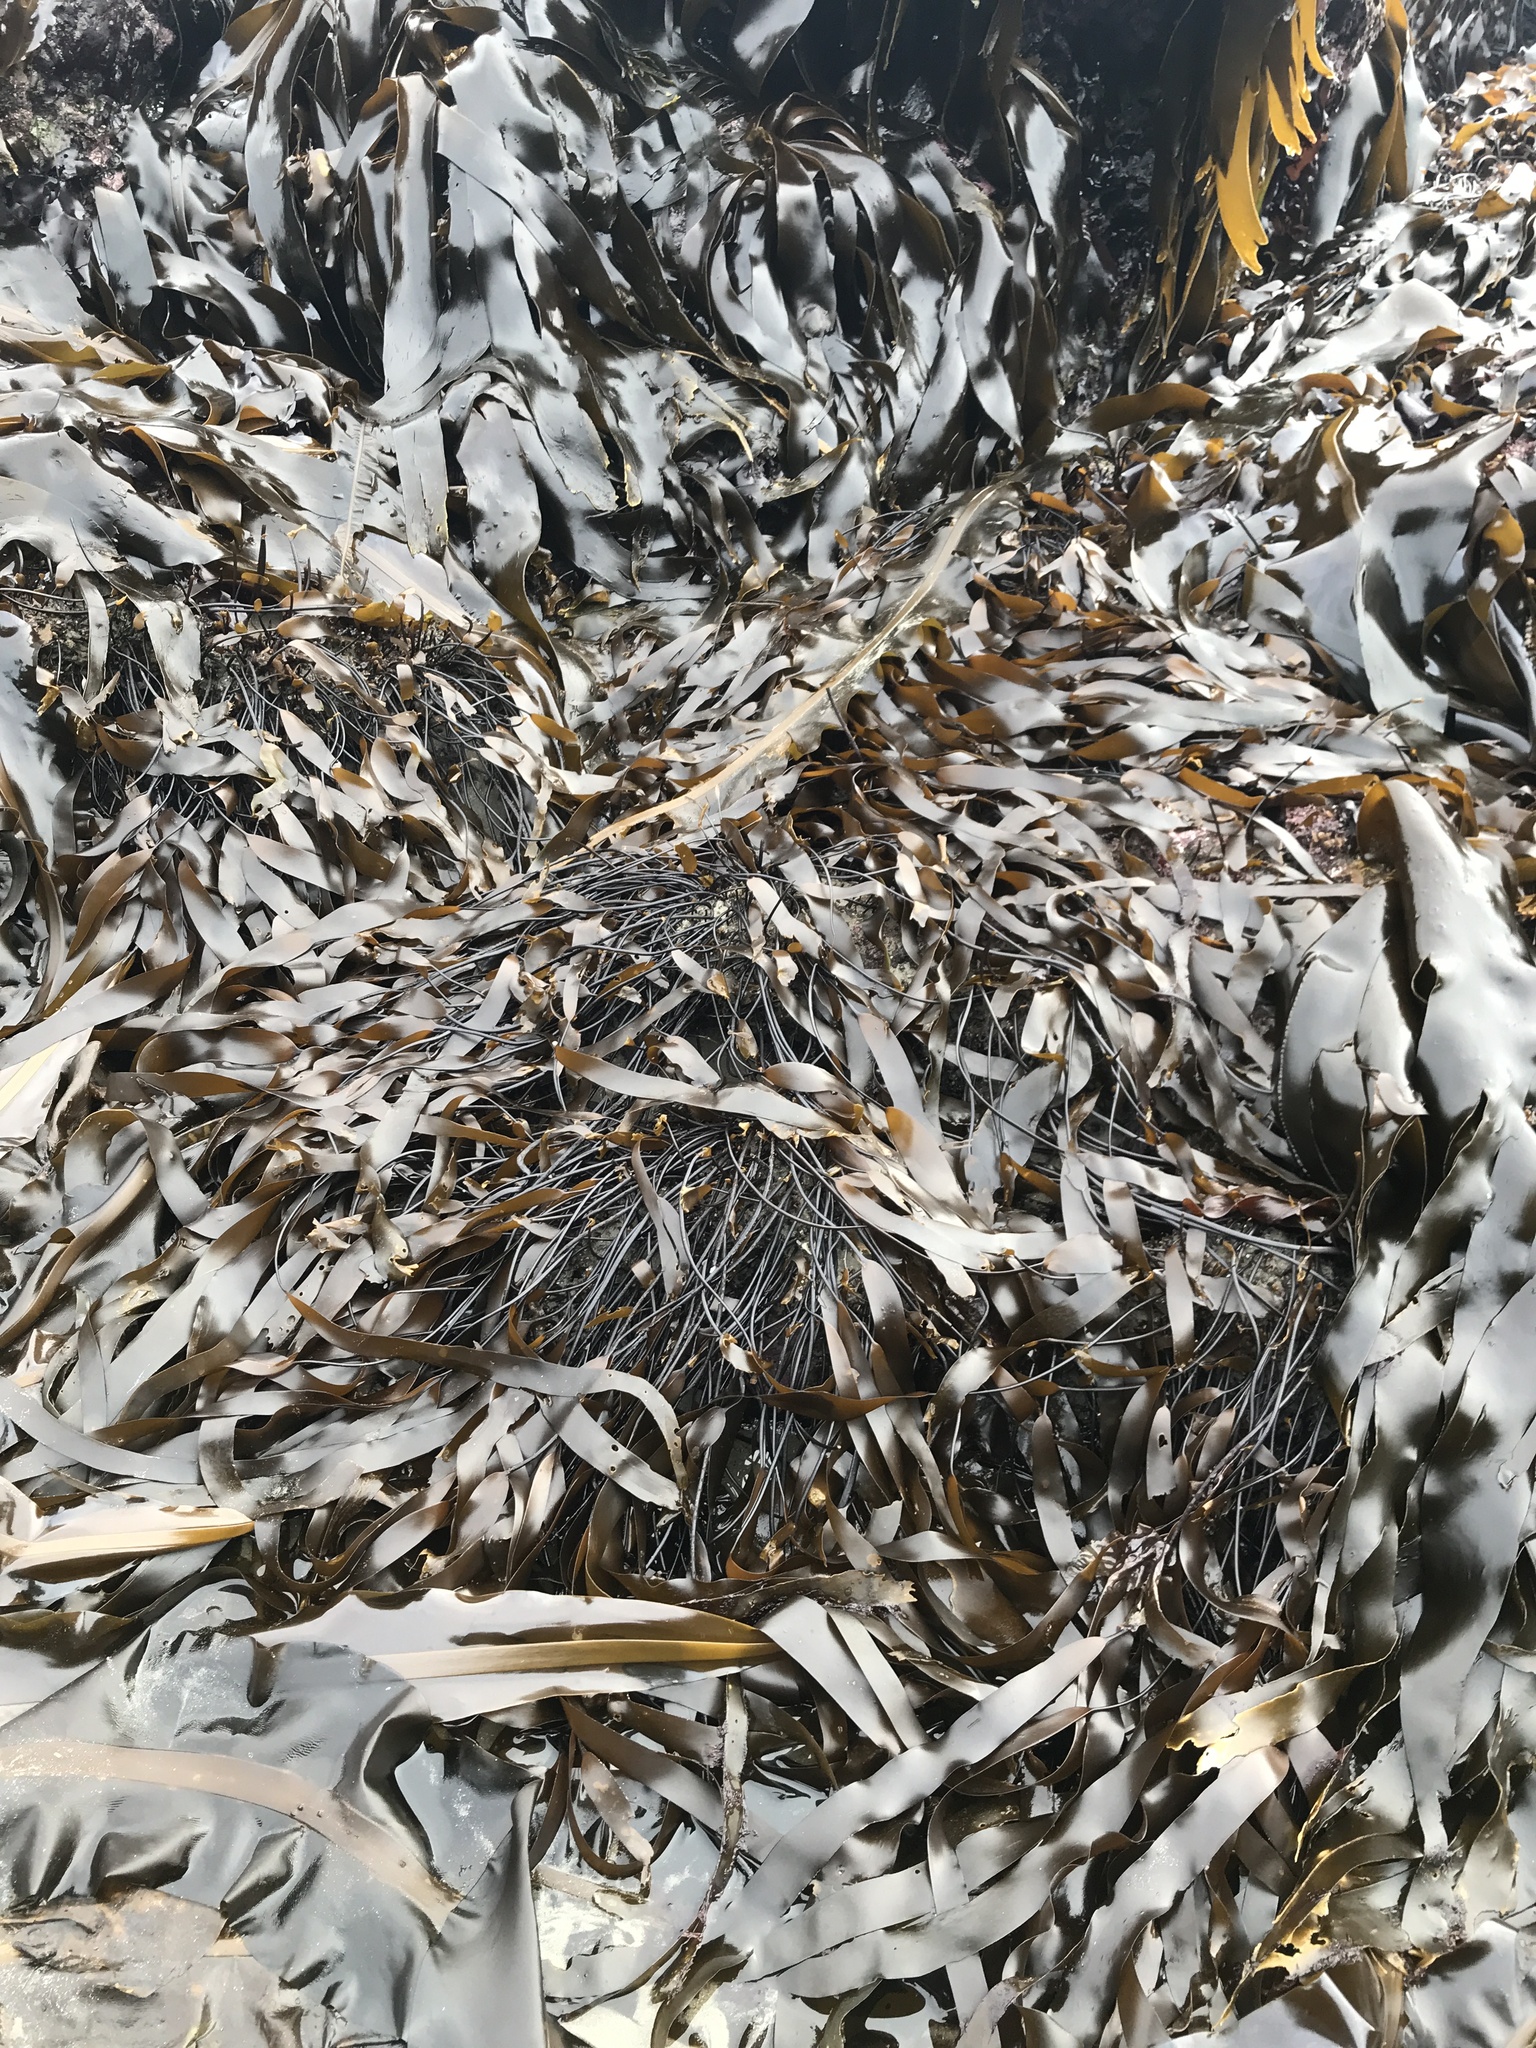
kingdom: Chromista
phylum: Ochrophyta
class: Phaeophyceae
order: Laminariales
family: Laminariaceae
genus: Laminaria
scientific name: Laminaria sinclairii
